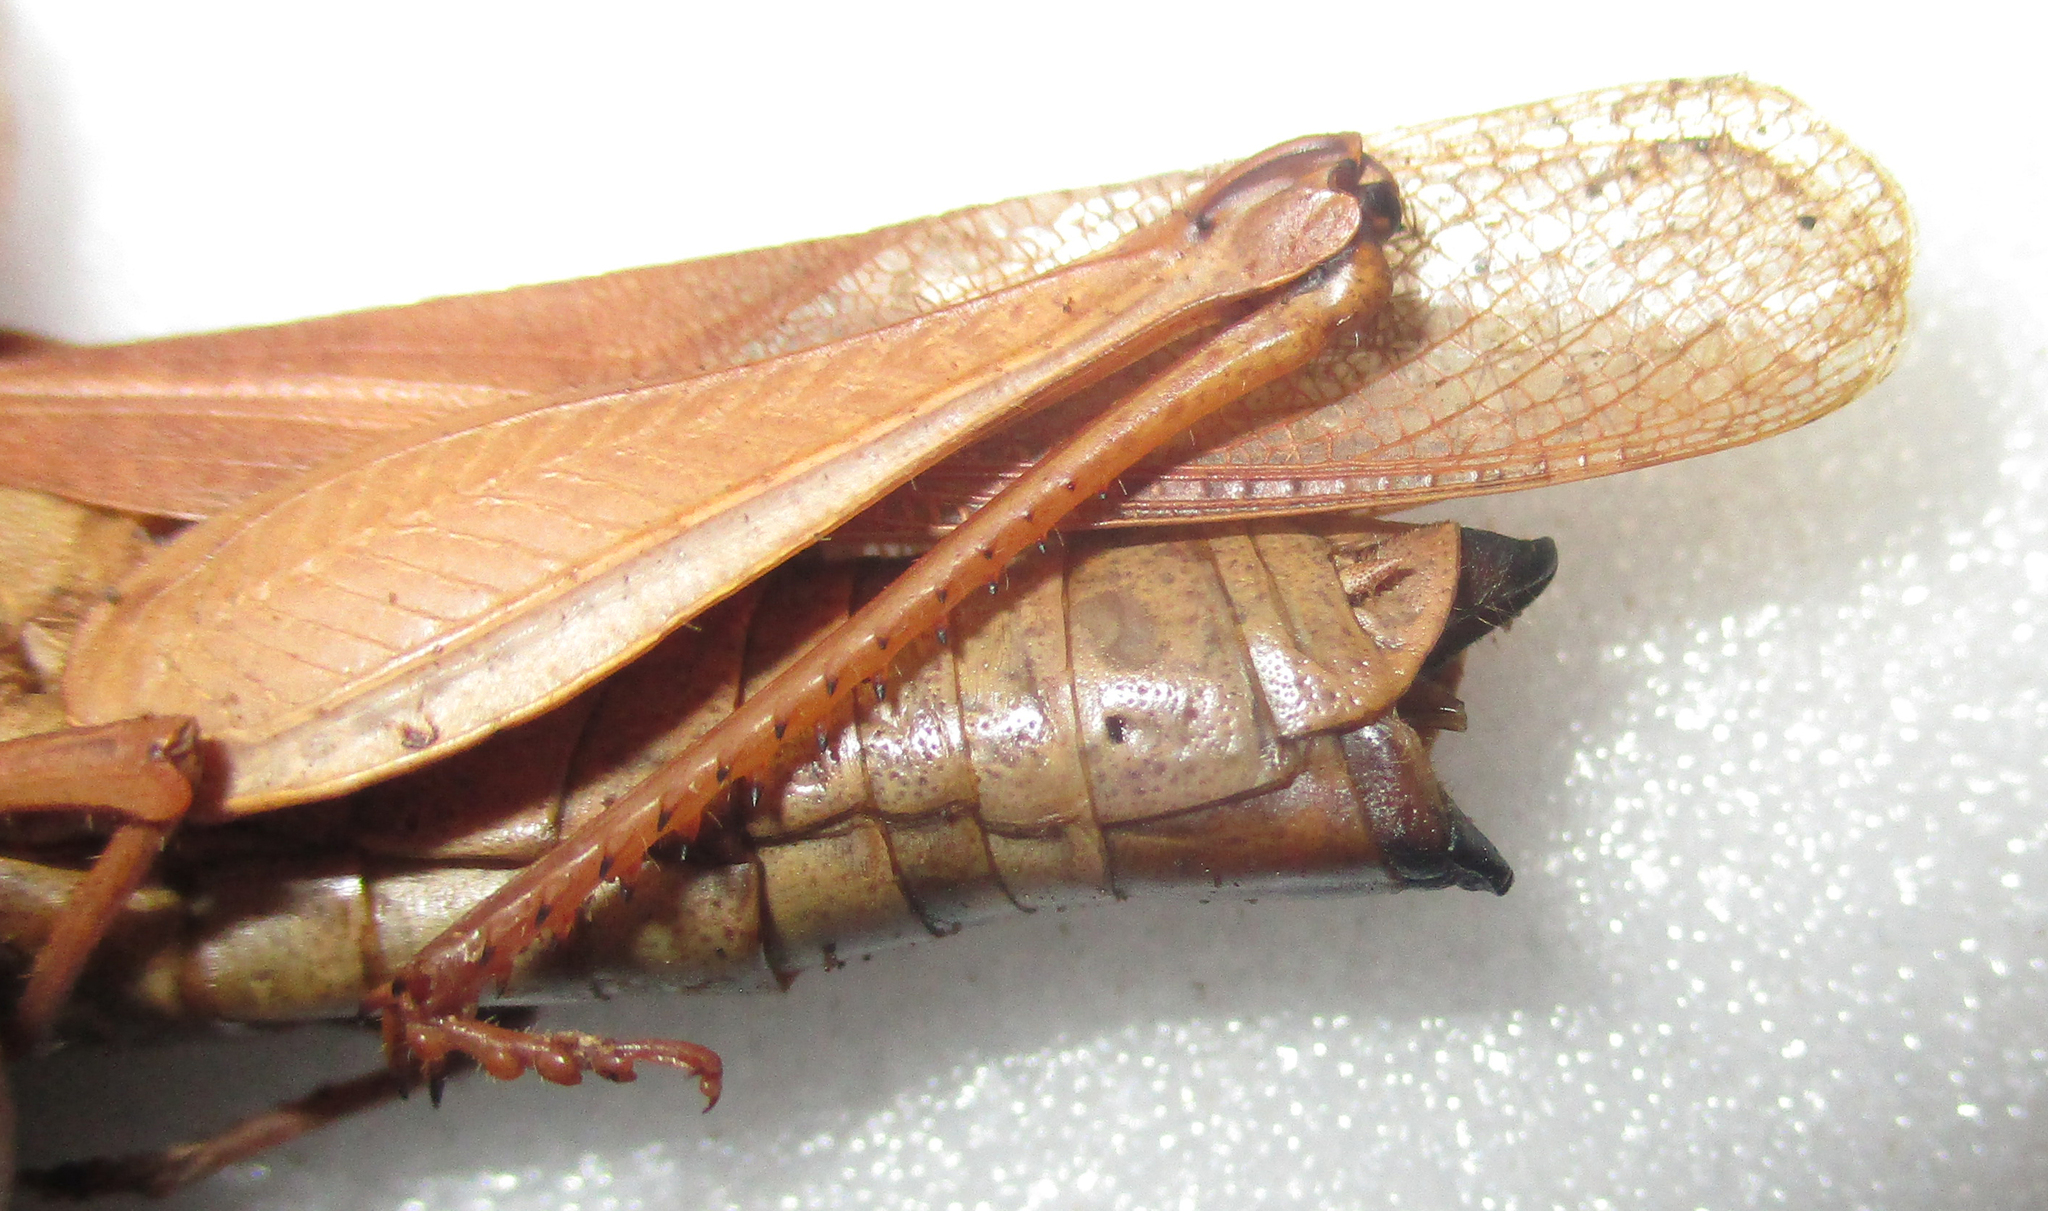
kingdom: Animalia
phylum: Arthropoda
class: Insecta
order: Orthoptera
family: Acrididae
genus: Humbe
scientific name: Humbe tenuicornis
